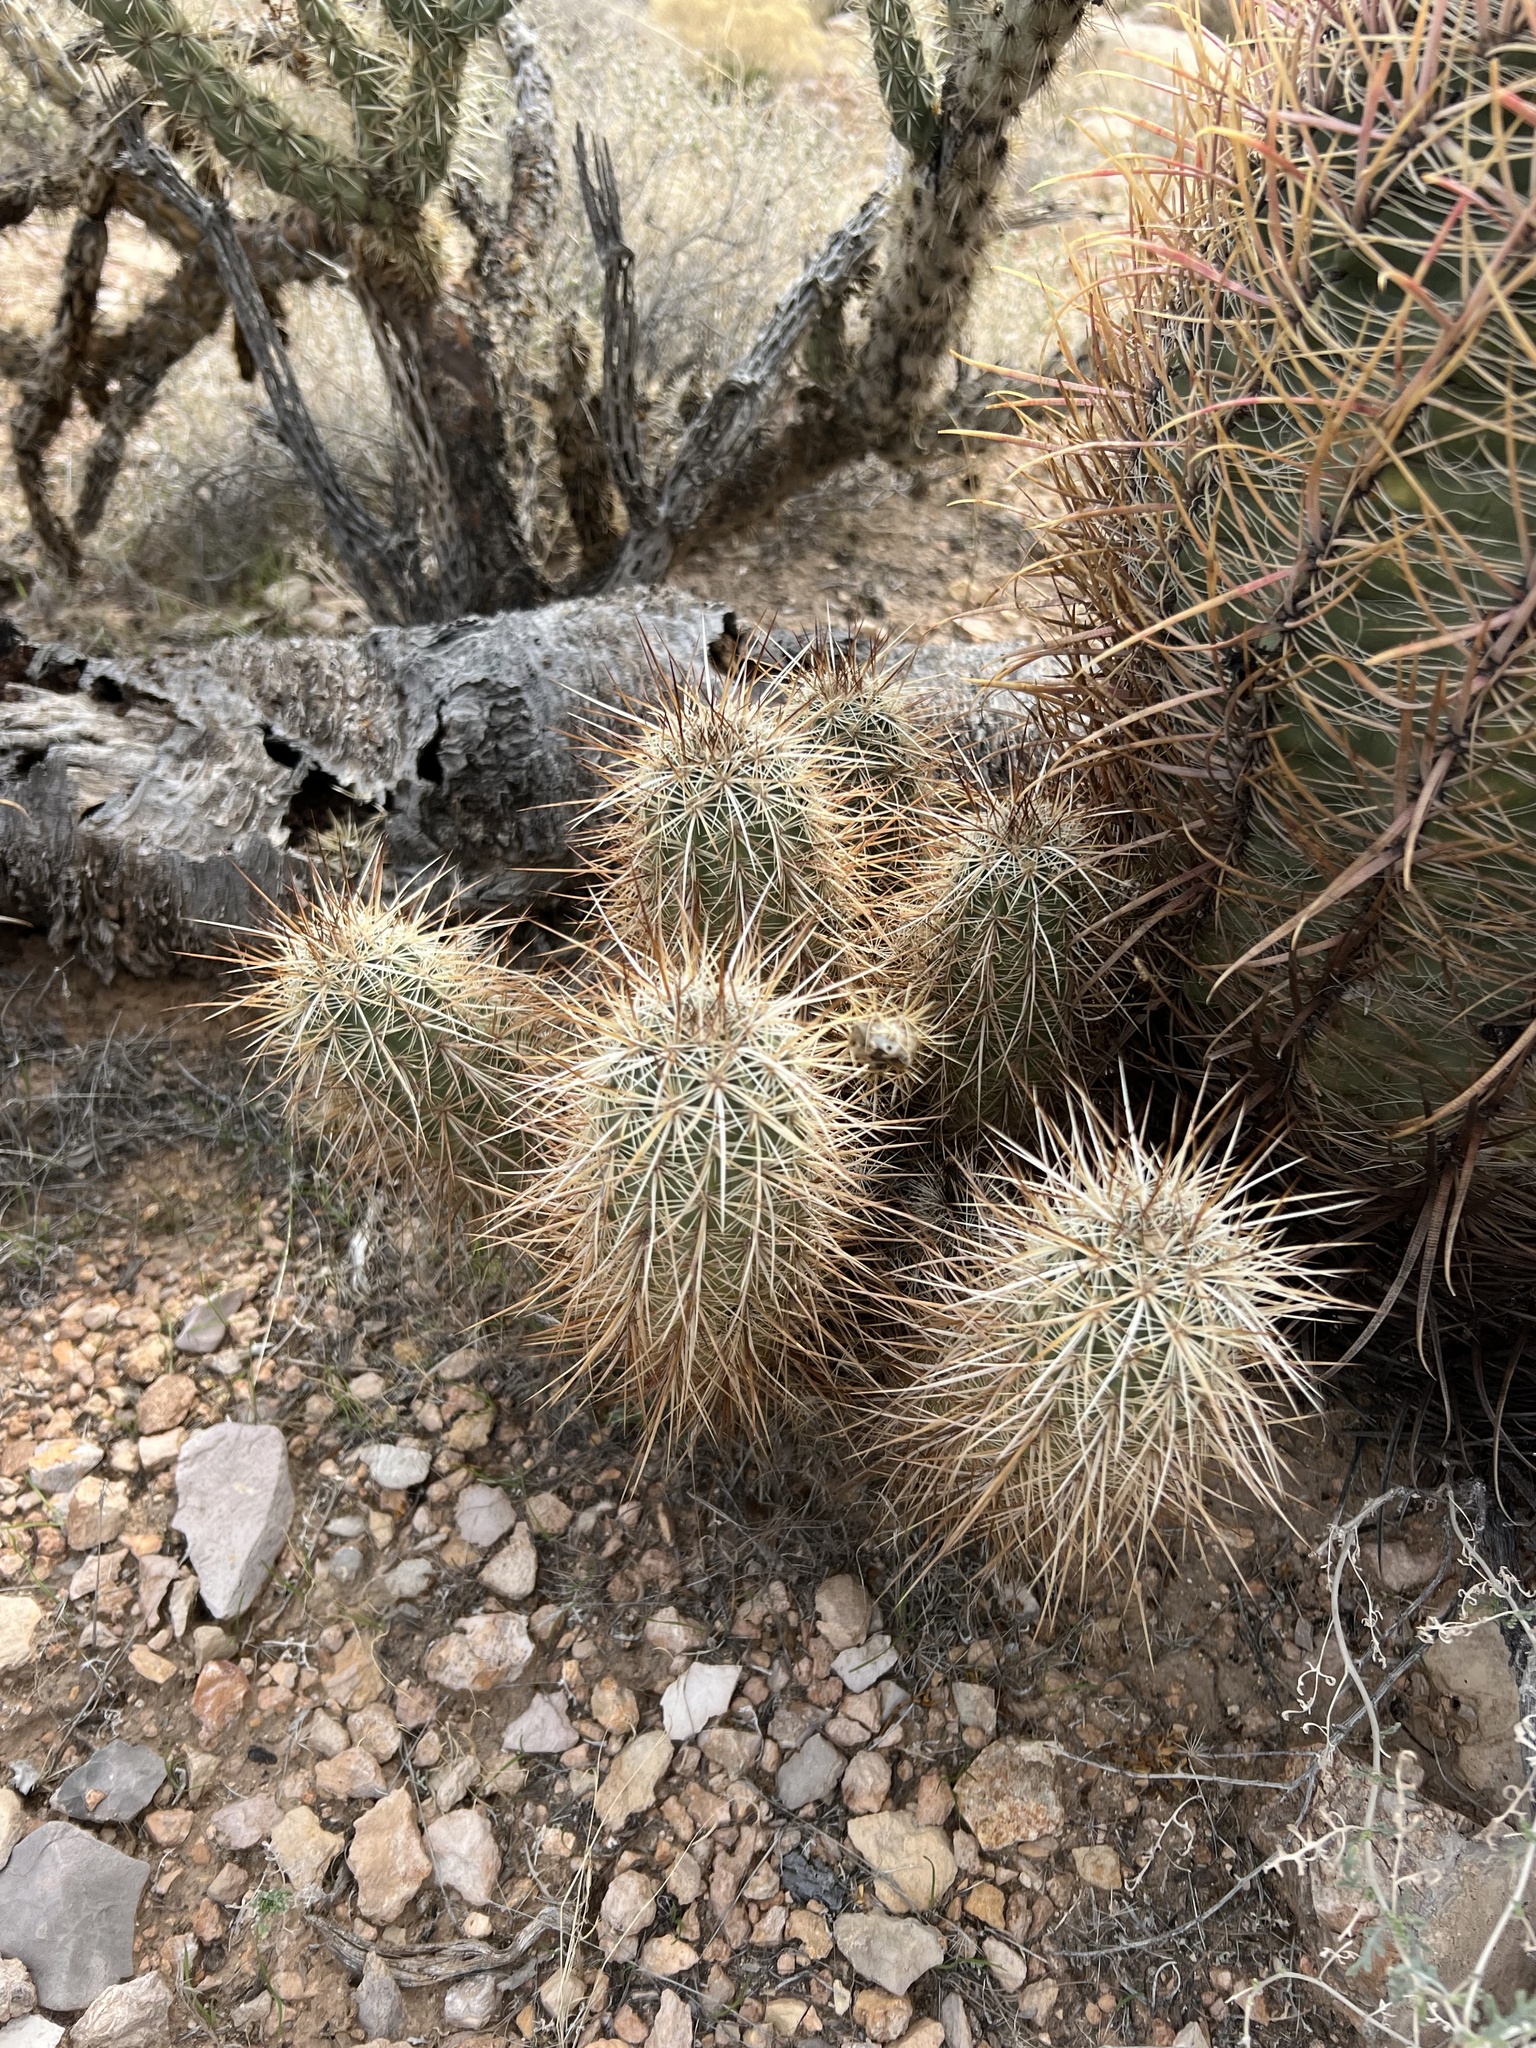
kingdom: Plantae
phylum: Tracheophyta
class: Magnoliopsida
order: Caryophyllales
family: Cactaceae
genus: Echinocereus
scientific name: Echinocereus engelmannii
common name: Engelmann's hedgehog cactus
